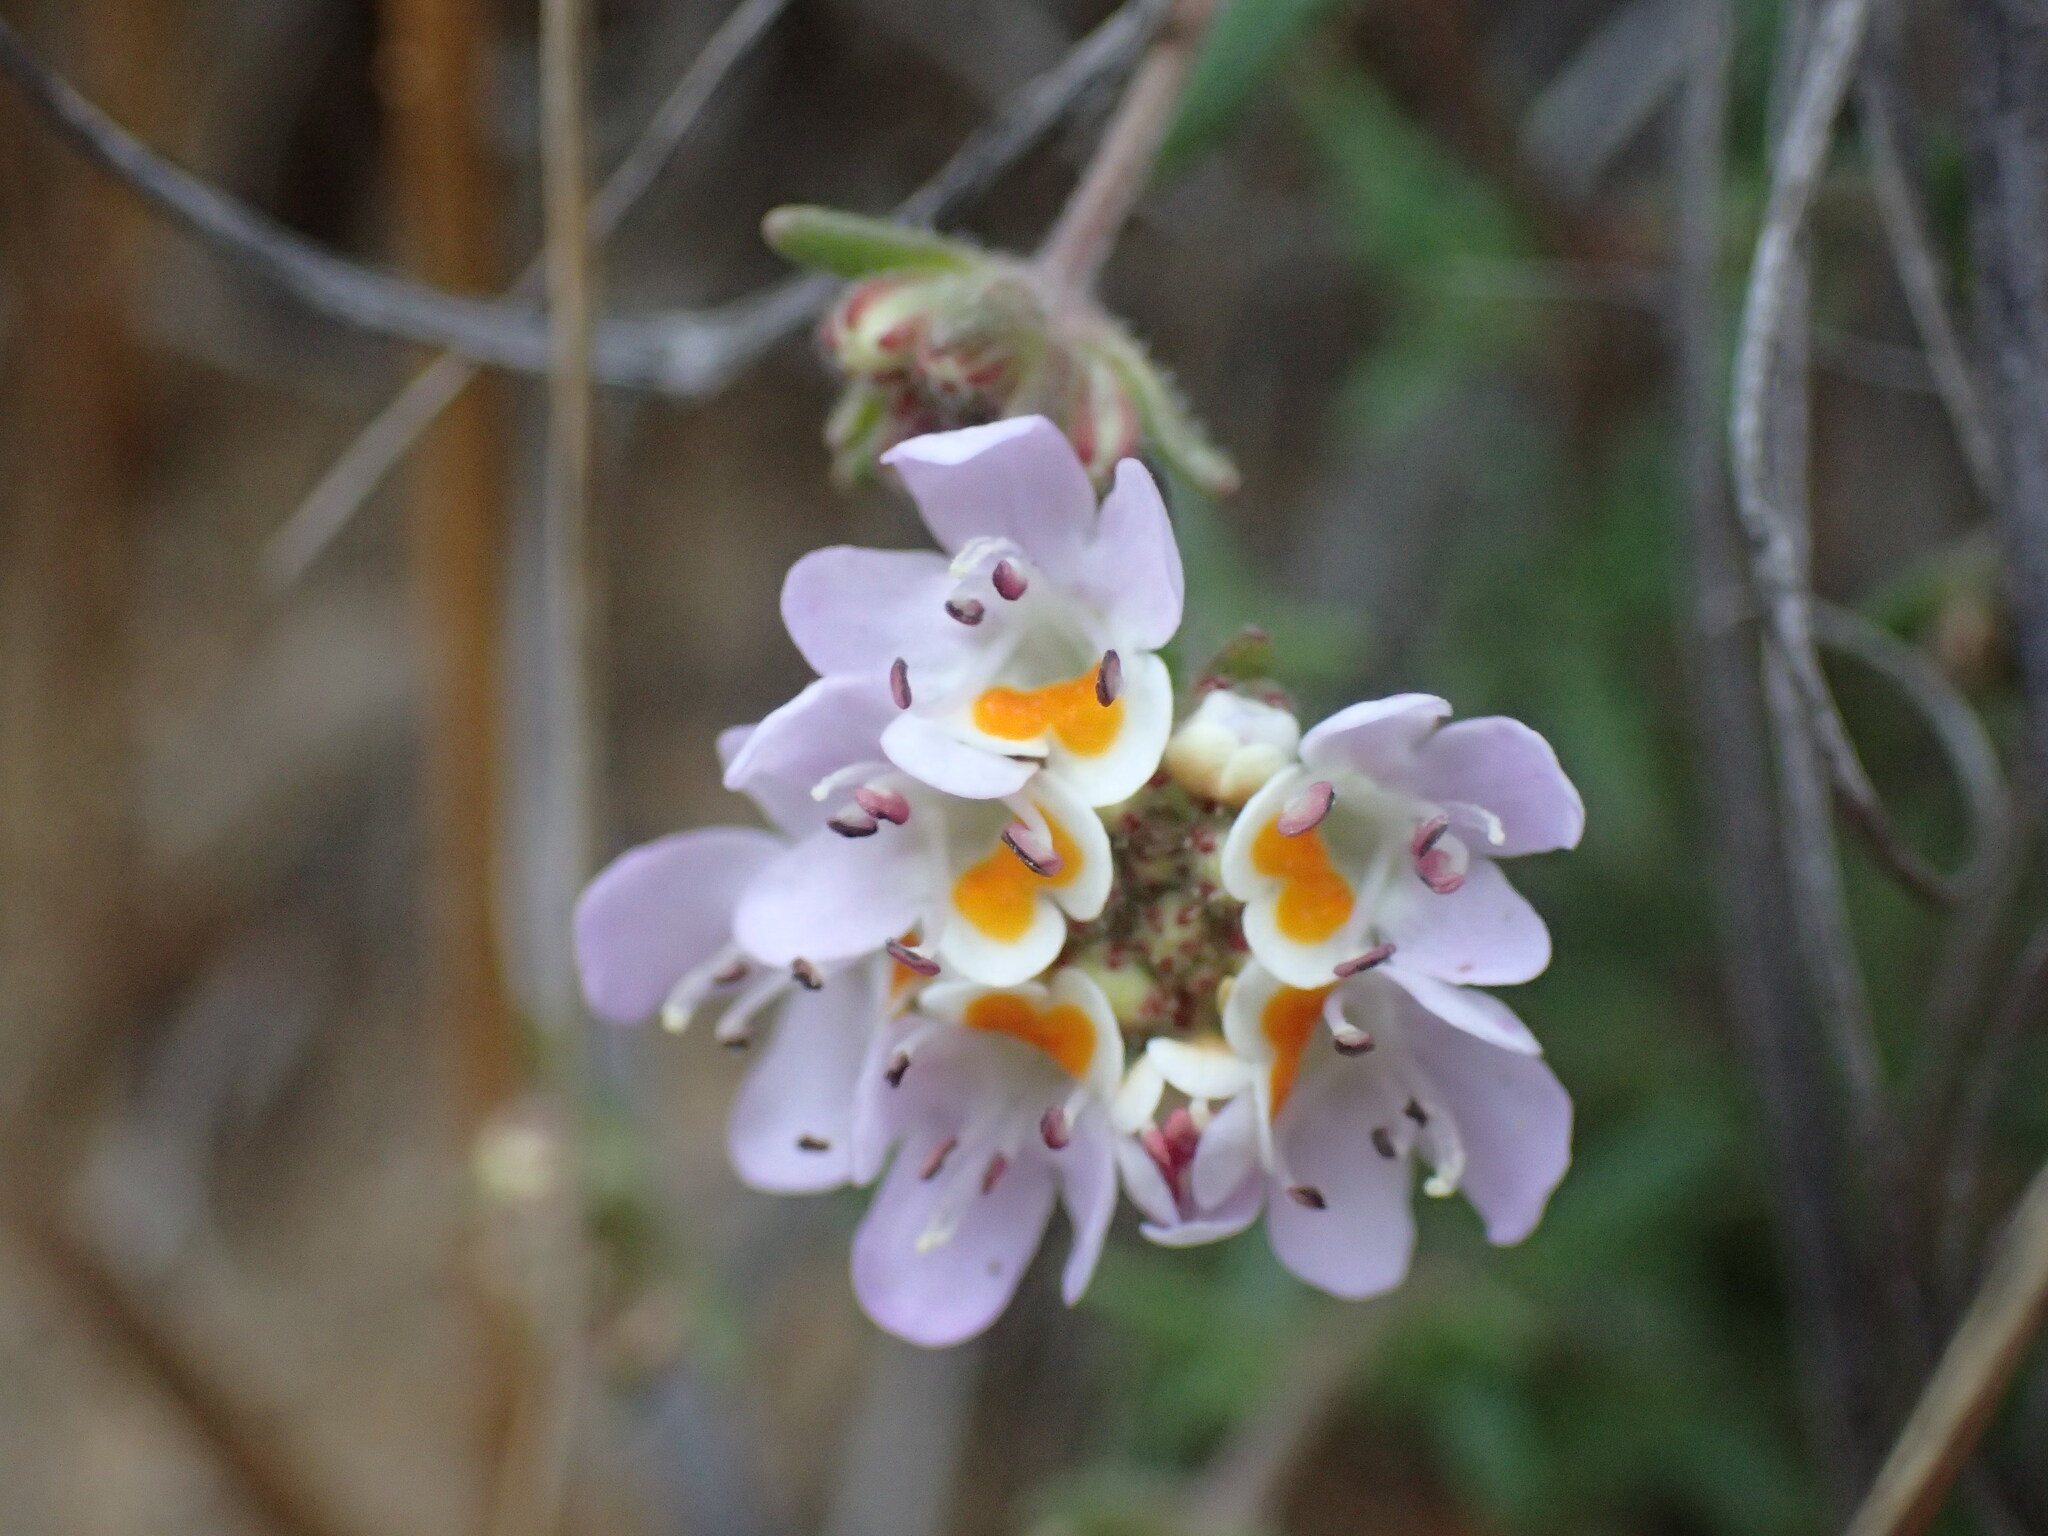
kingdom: Plantae
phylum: Tracheophyta
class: Magnoliopsida
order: Lamiales
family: Scrophulariaceae
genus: Melanospermum
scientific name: Melanospermum foliosum
